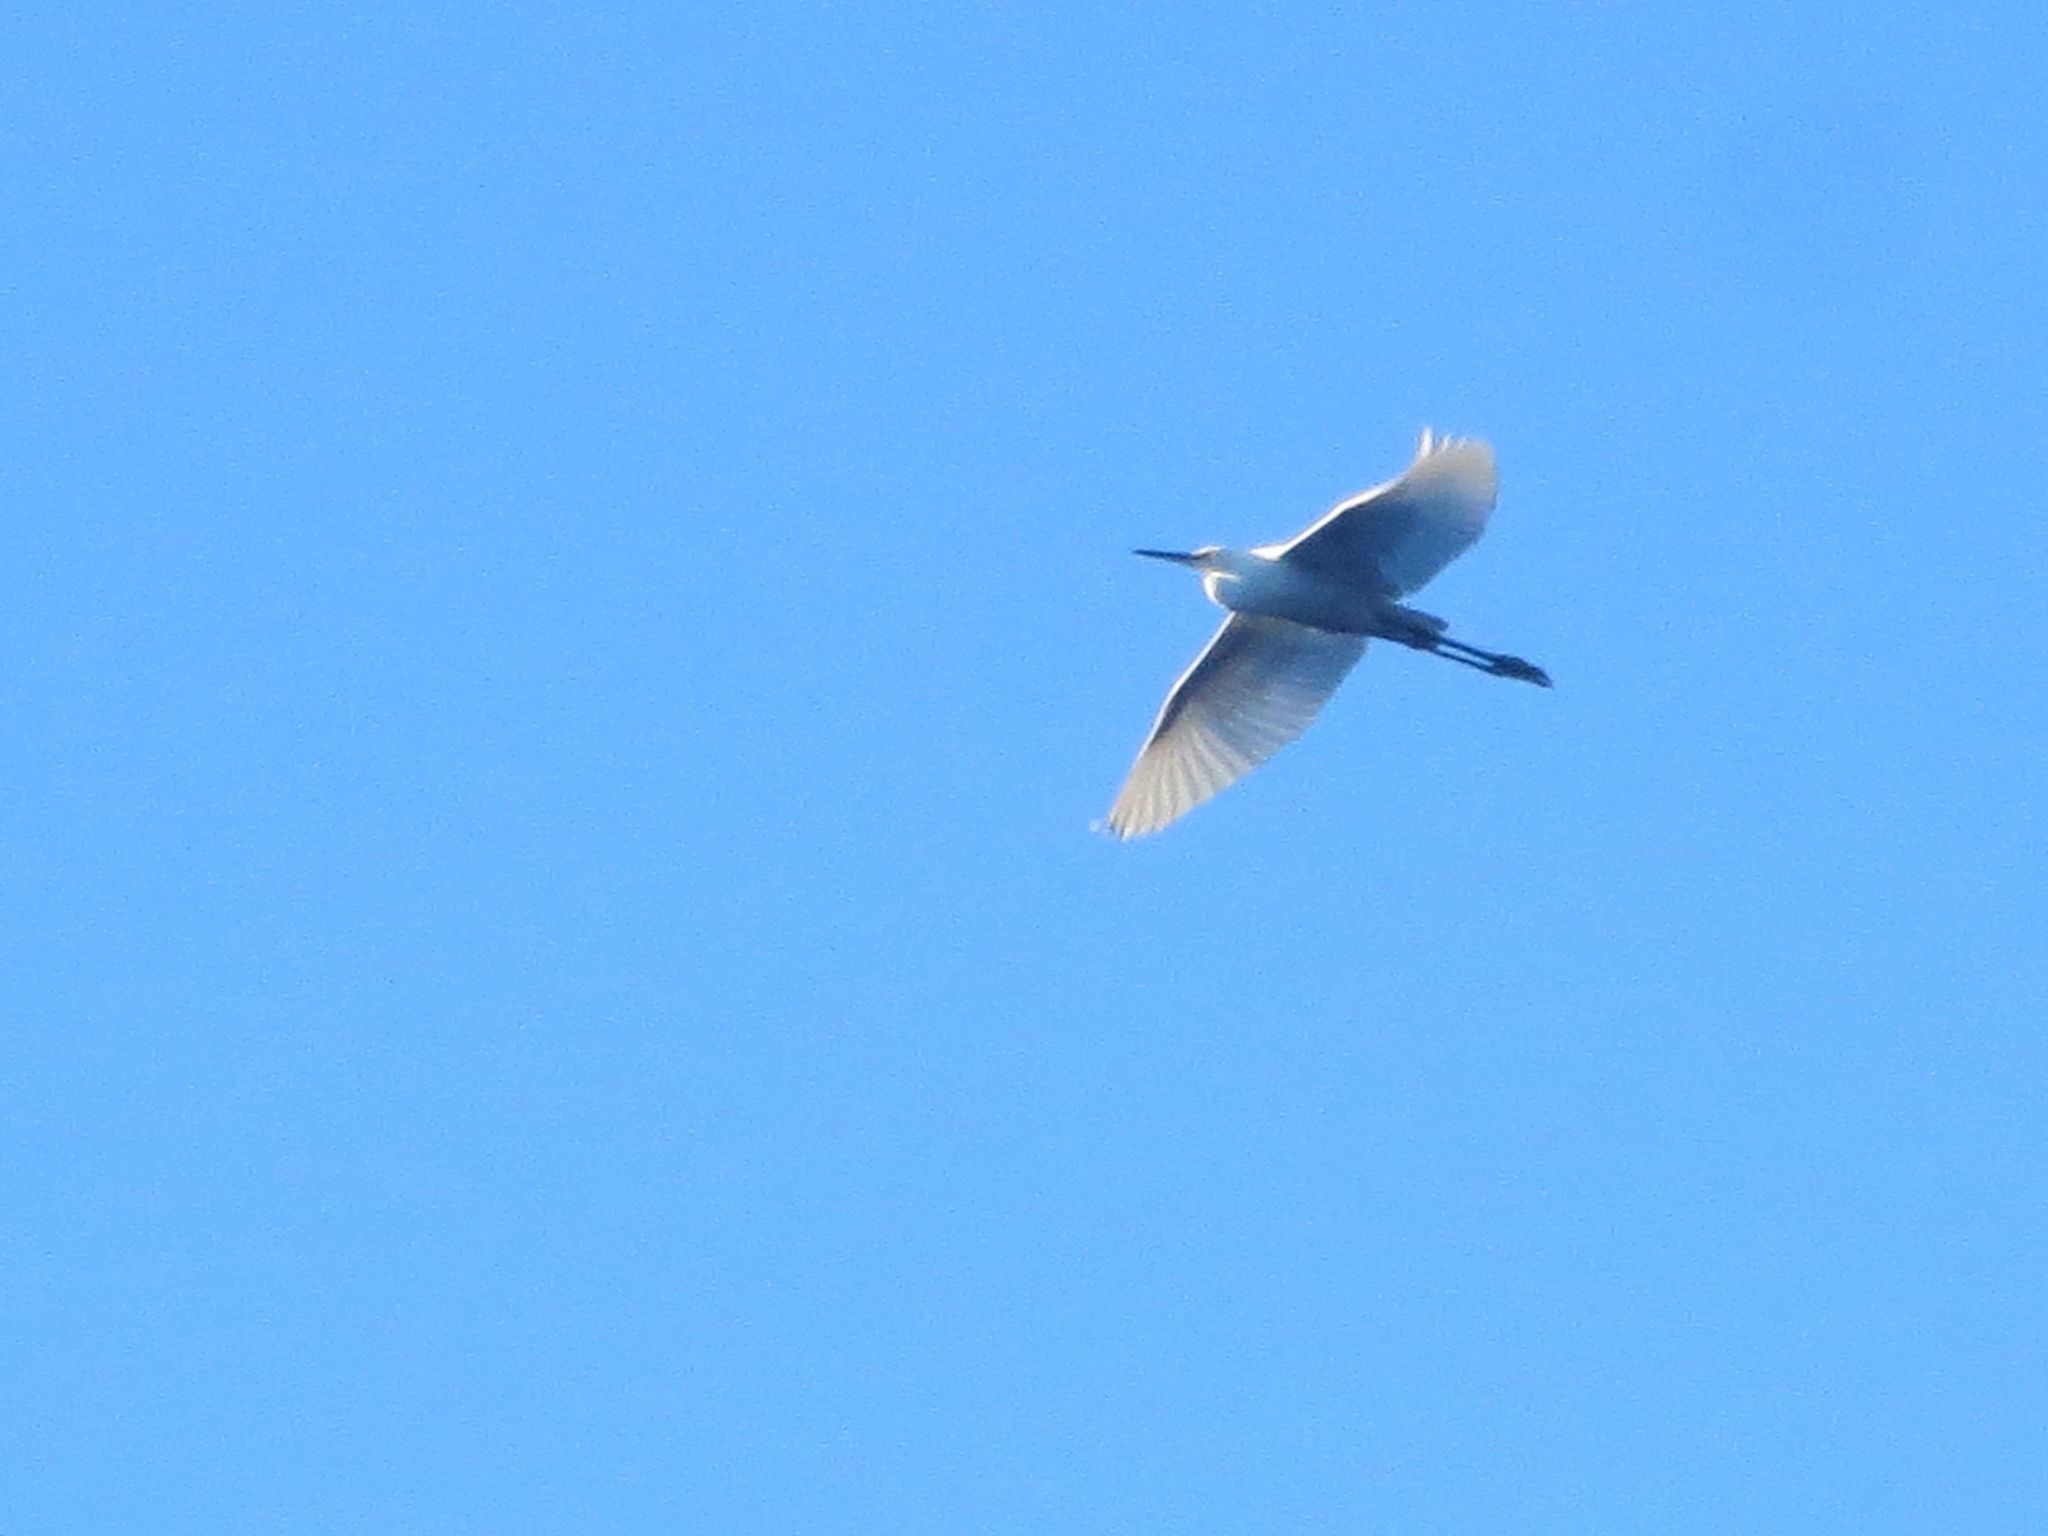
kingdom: Animalia
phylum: Chordata
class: Aves
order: Pelecaniformes
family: Ardeidae
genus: Egretta
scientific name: Egretta thula
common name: Snowy egret
